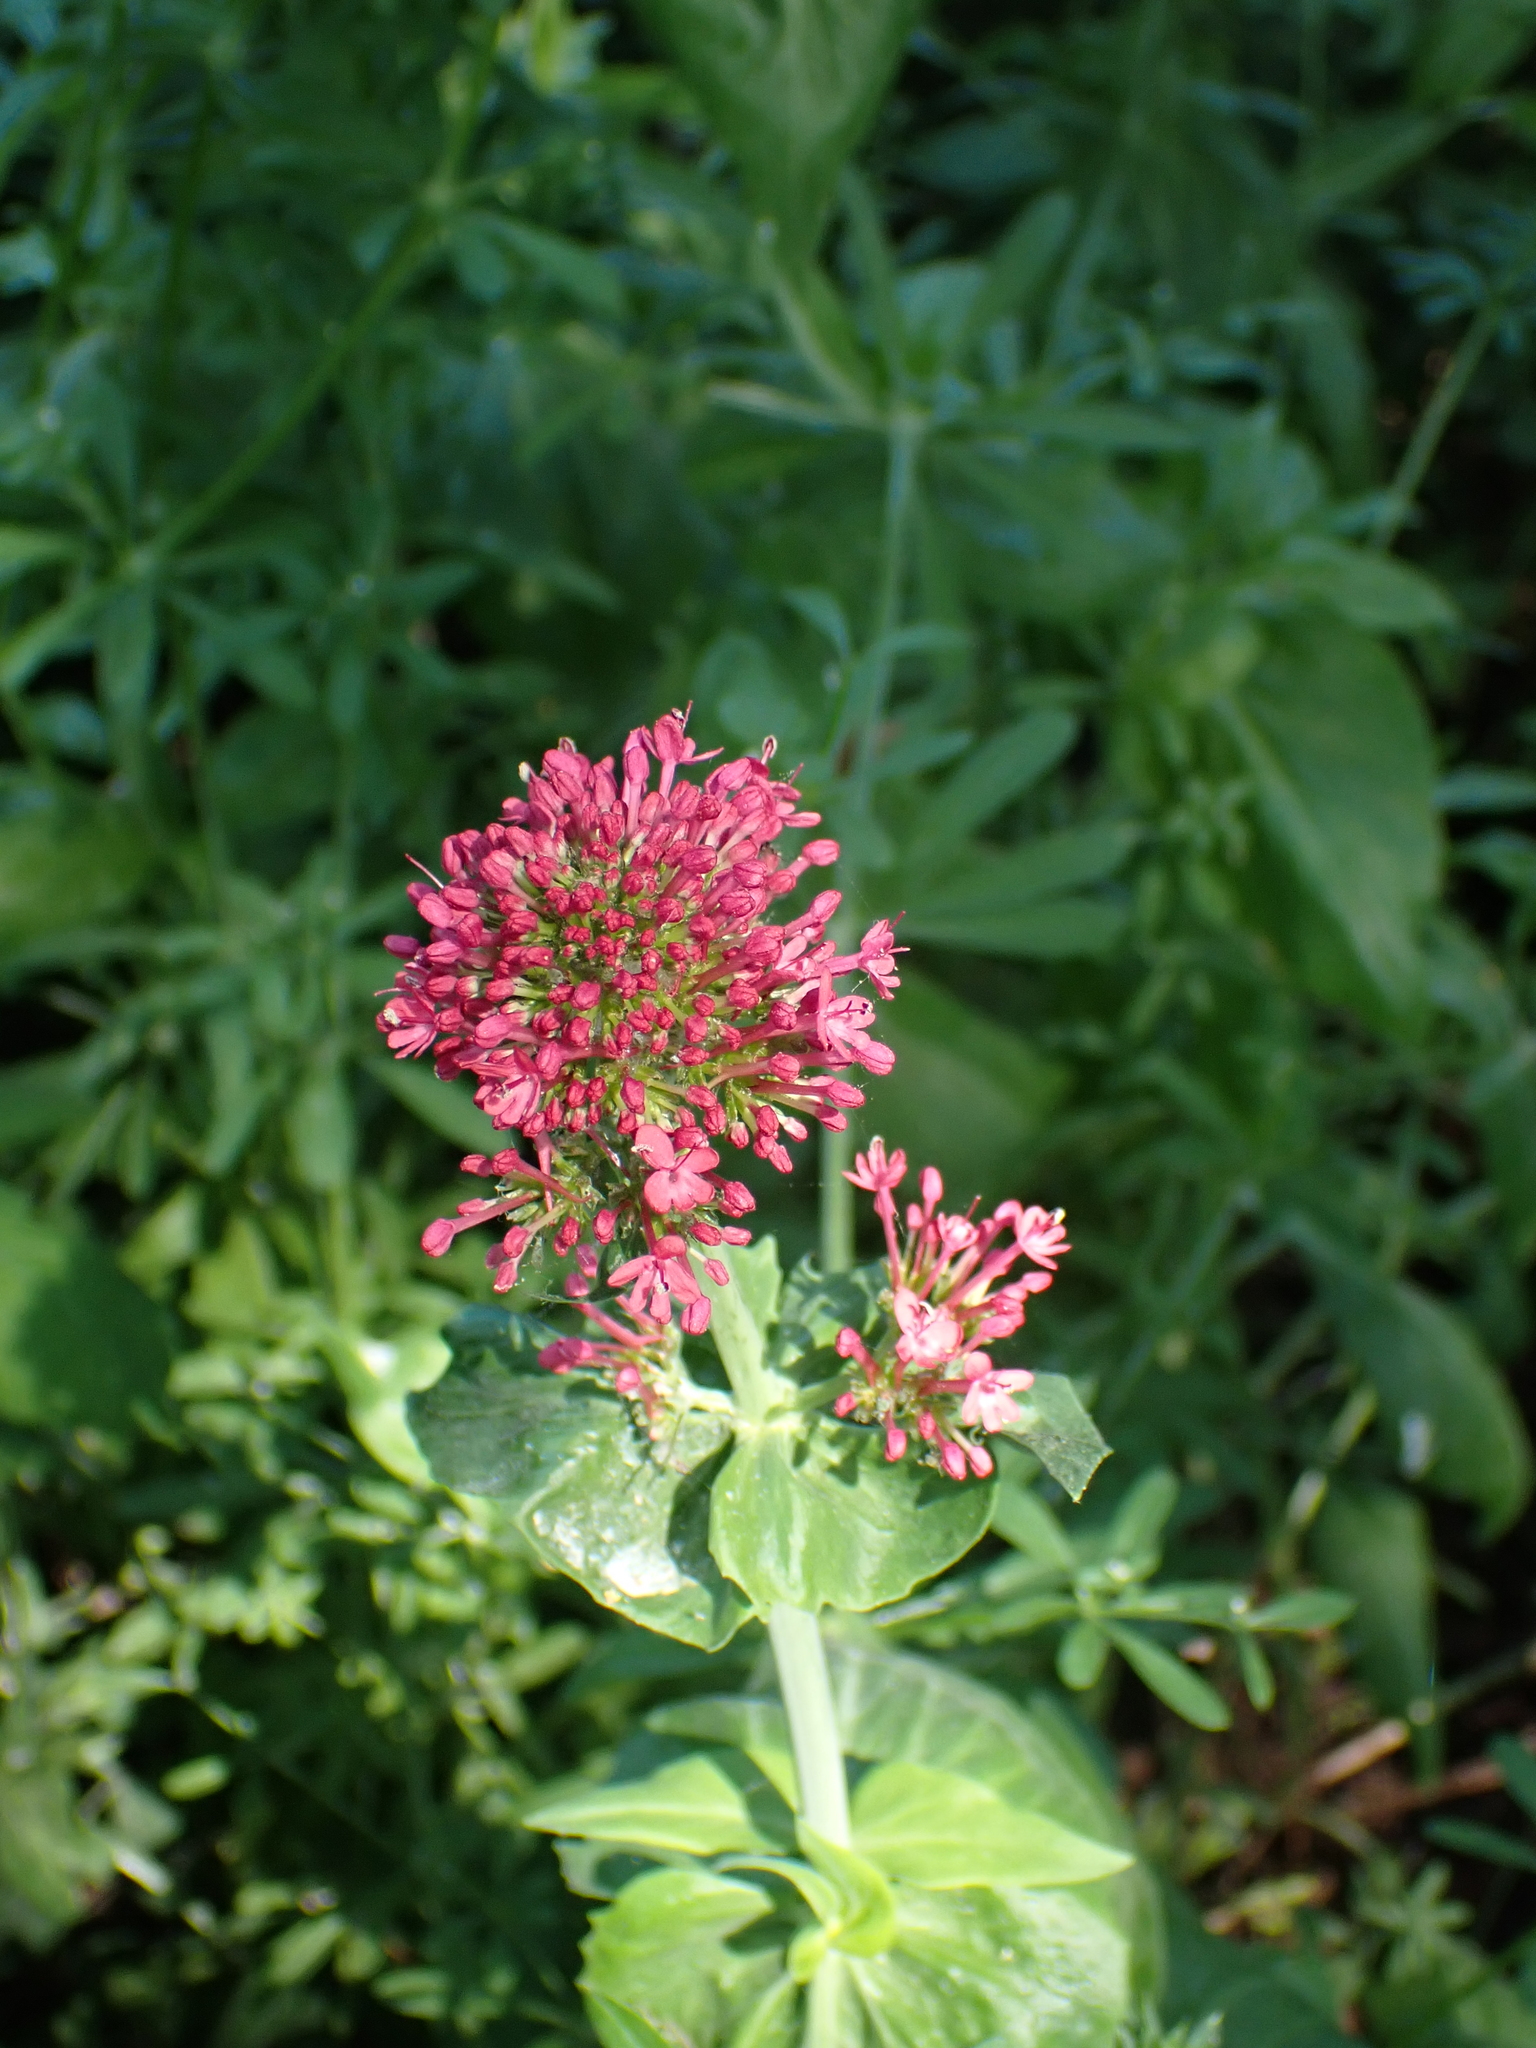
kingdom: Plantae
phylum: Tracheophyta
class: Magnoliopsida
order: Dipsacales
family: Caprifoliaceae
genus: Centranthus
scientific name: Centranthus ruber
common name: Red valerian
